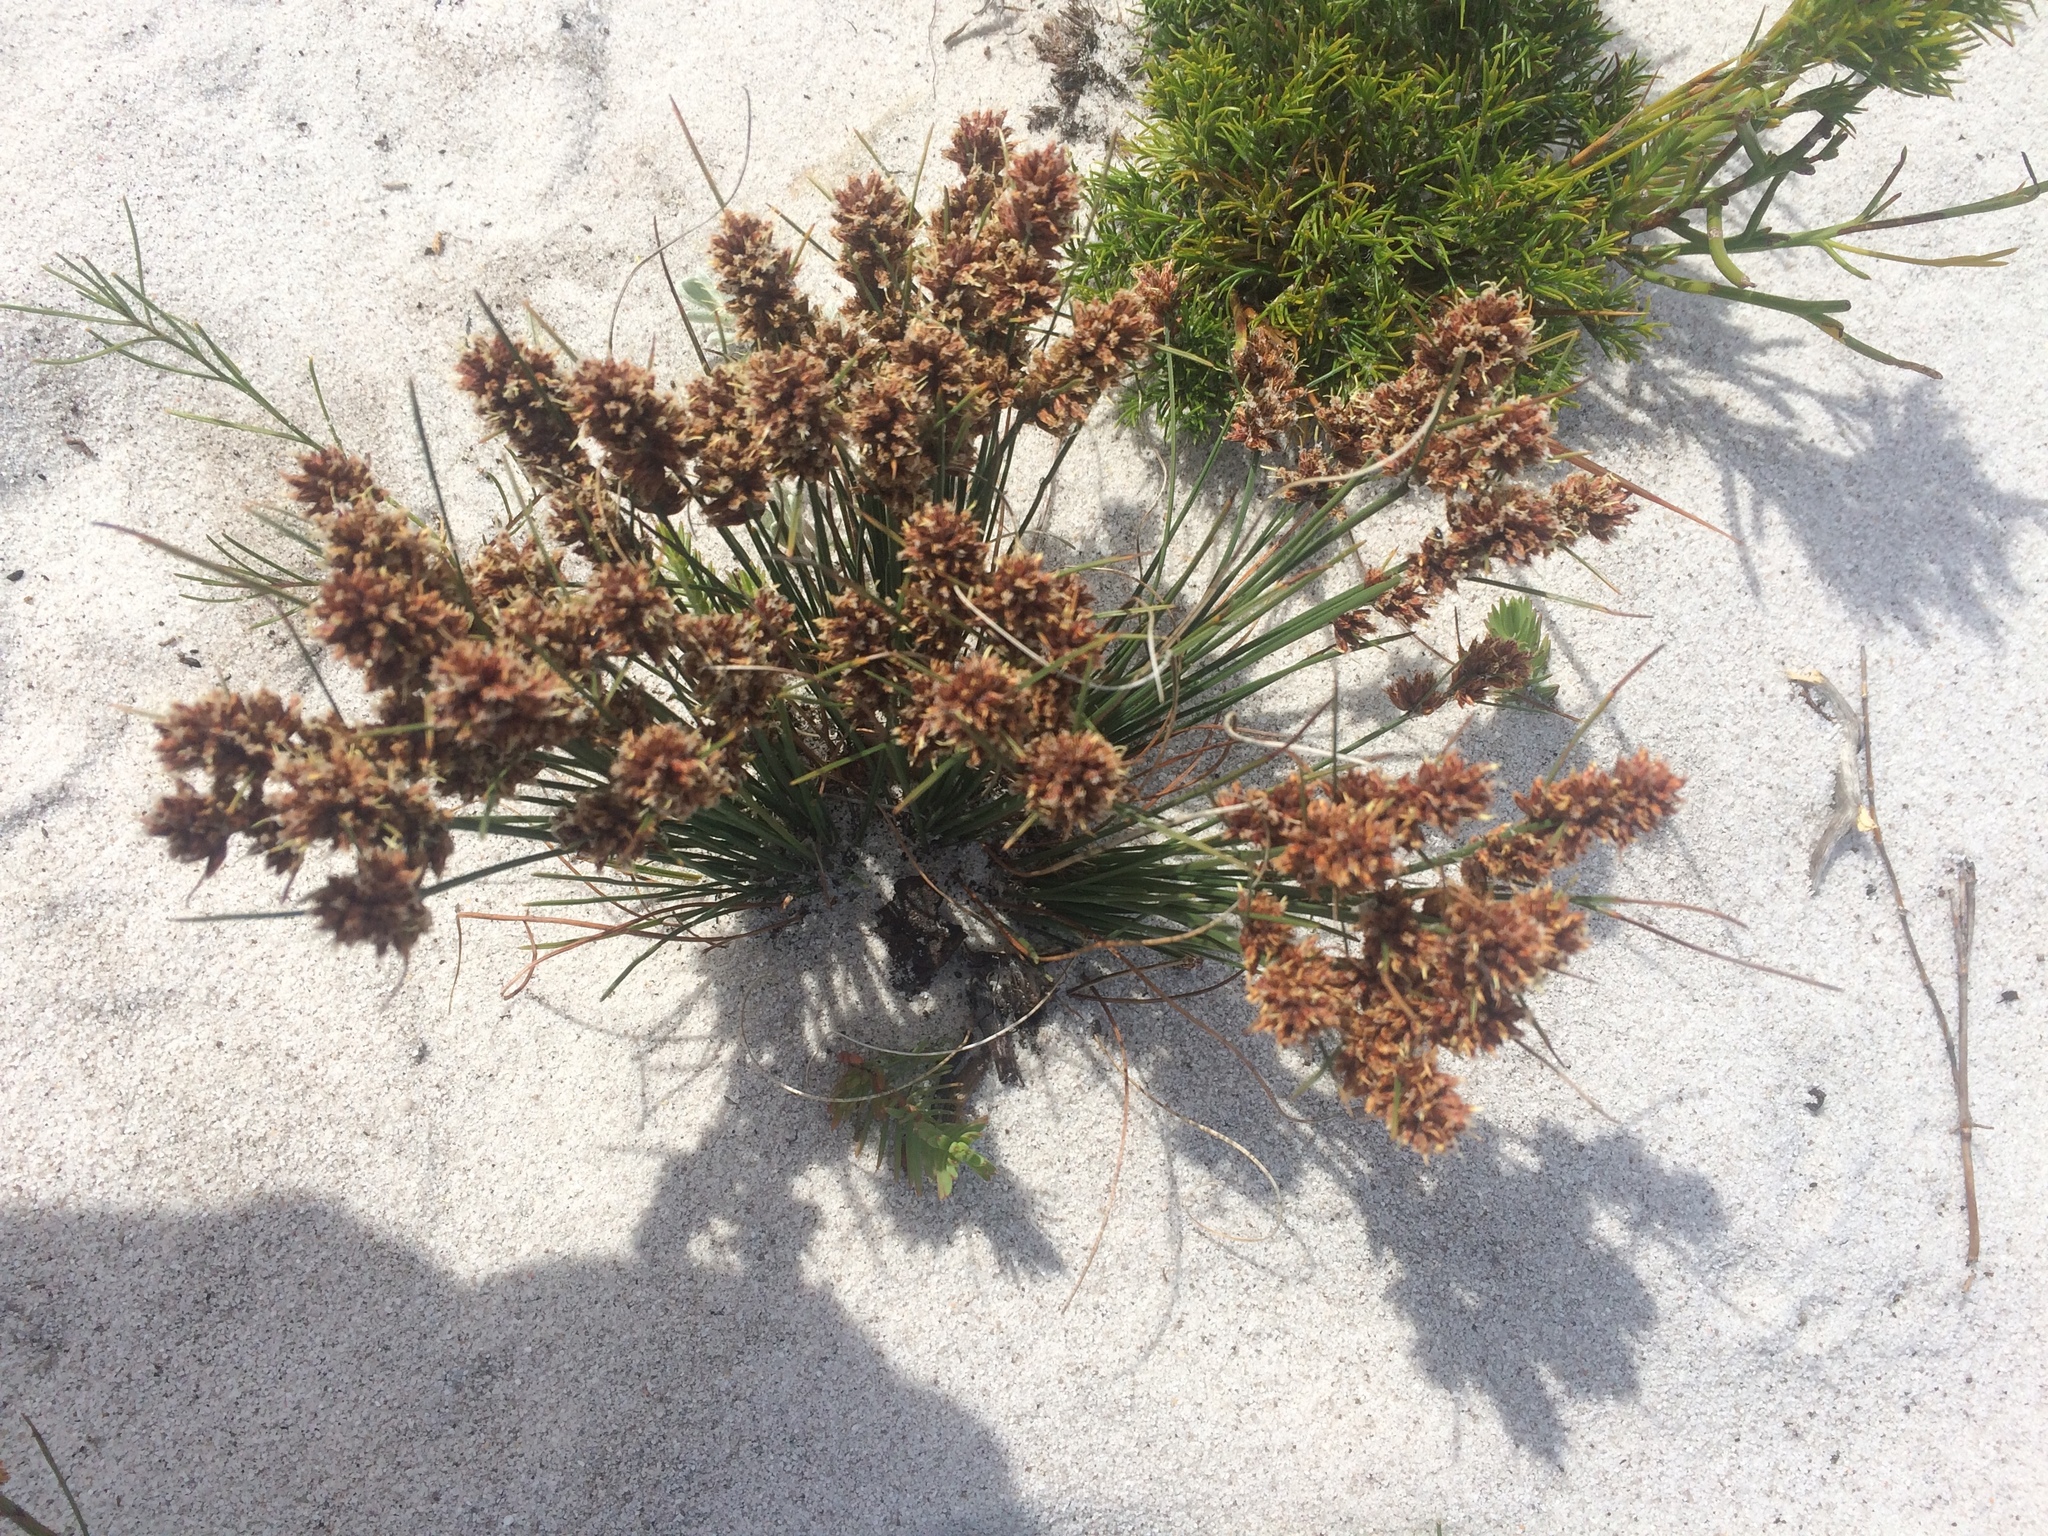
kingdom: Plantae
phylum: Tracheophyta
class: Liliopsida
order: Poales
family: Cyperaceae
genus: Ficinia
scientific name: Ficinia bulbosa
